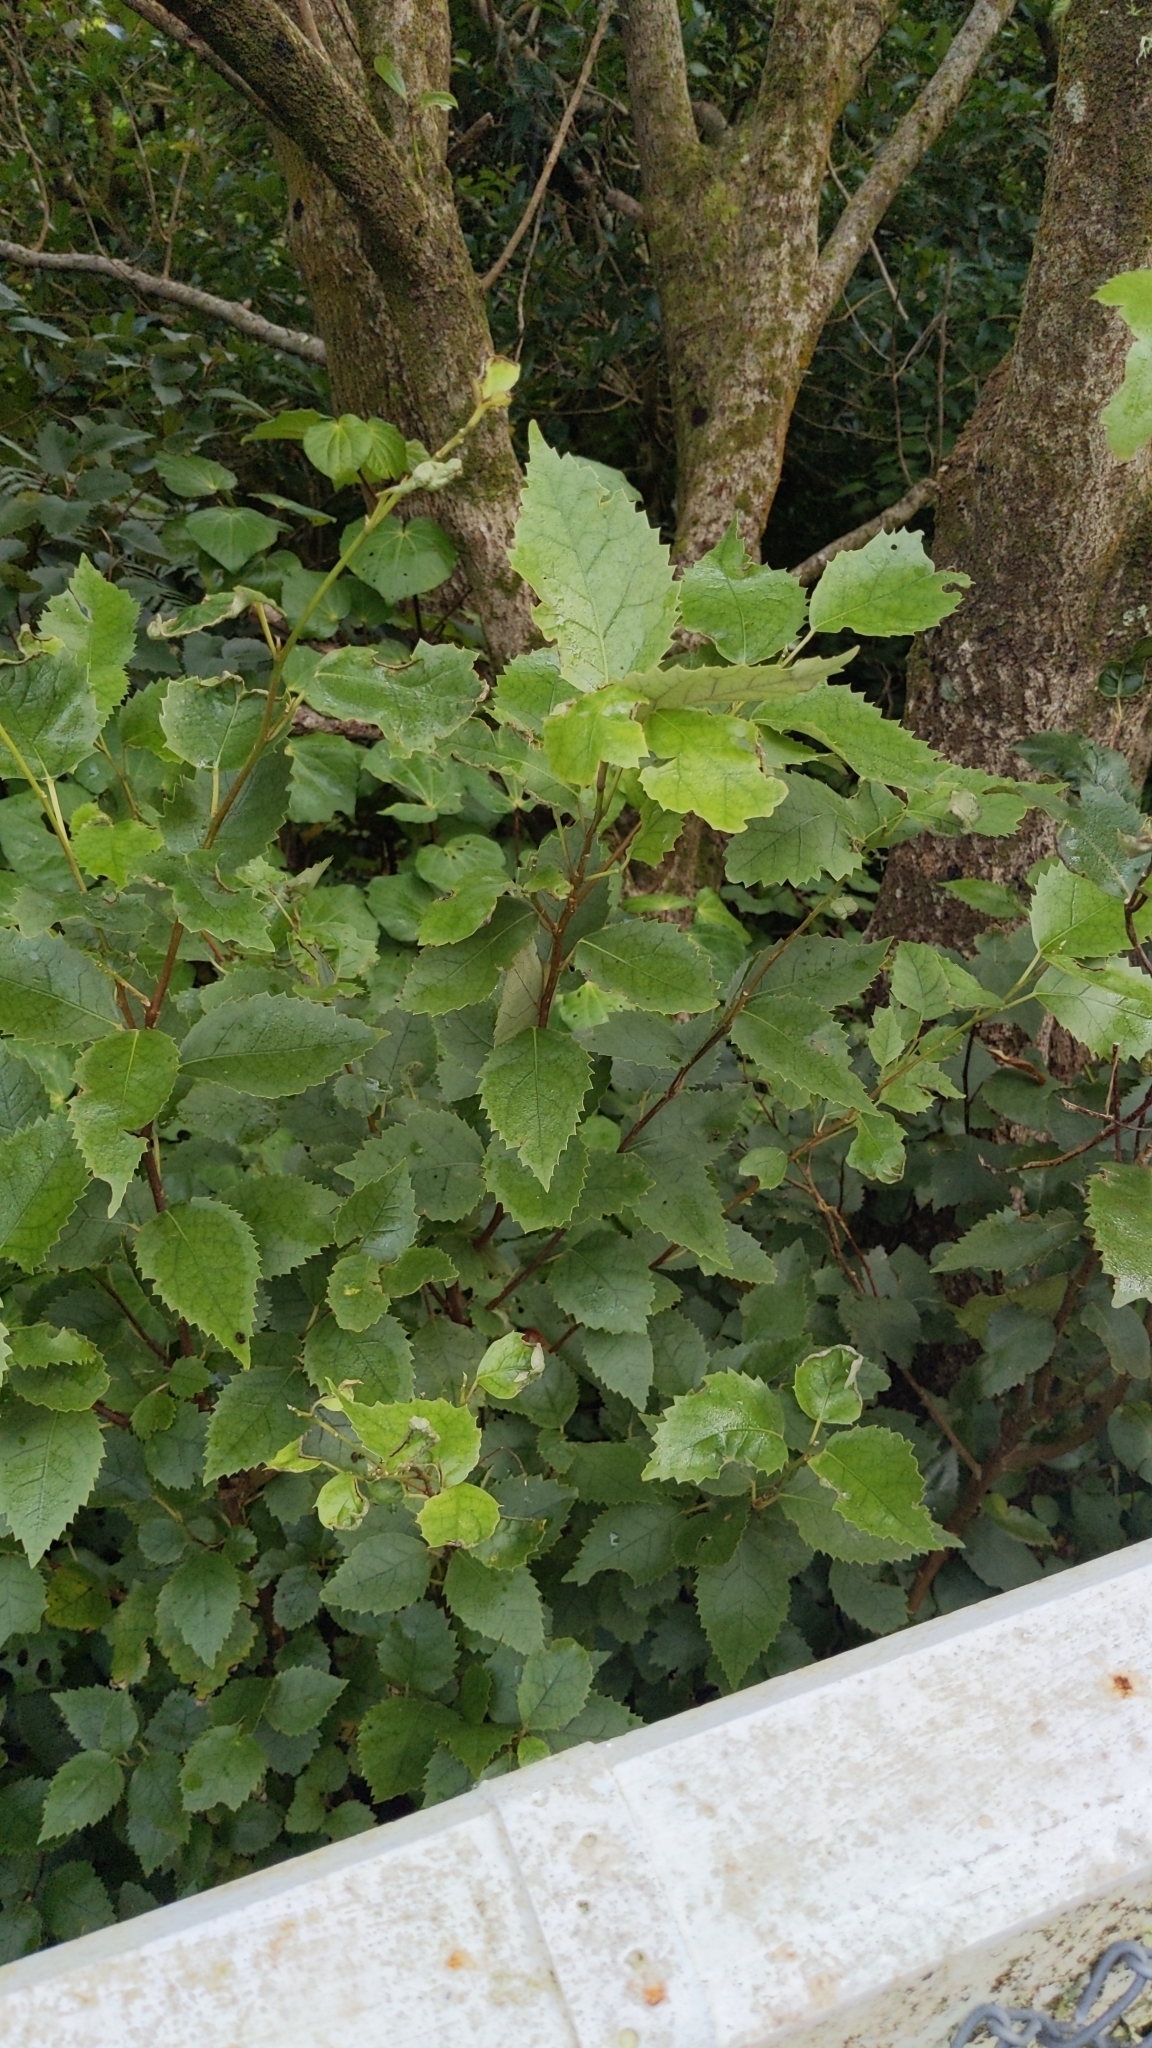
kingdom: Plantae
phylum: Tracheophyta
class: Magnoliopsida
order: Malvales
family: Malvaceae
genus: Hoheria
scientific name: Hoheria populnea
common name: Lacebark
